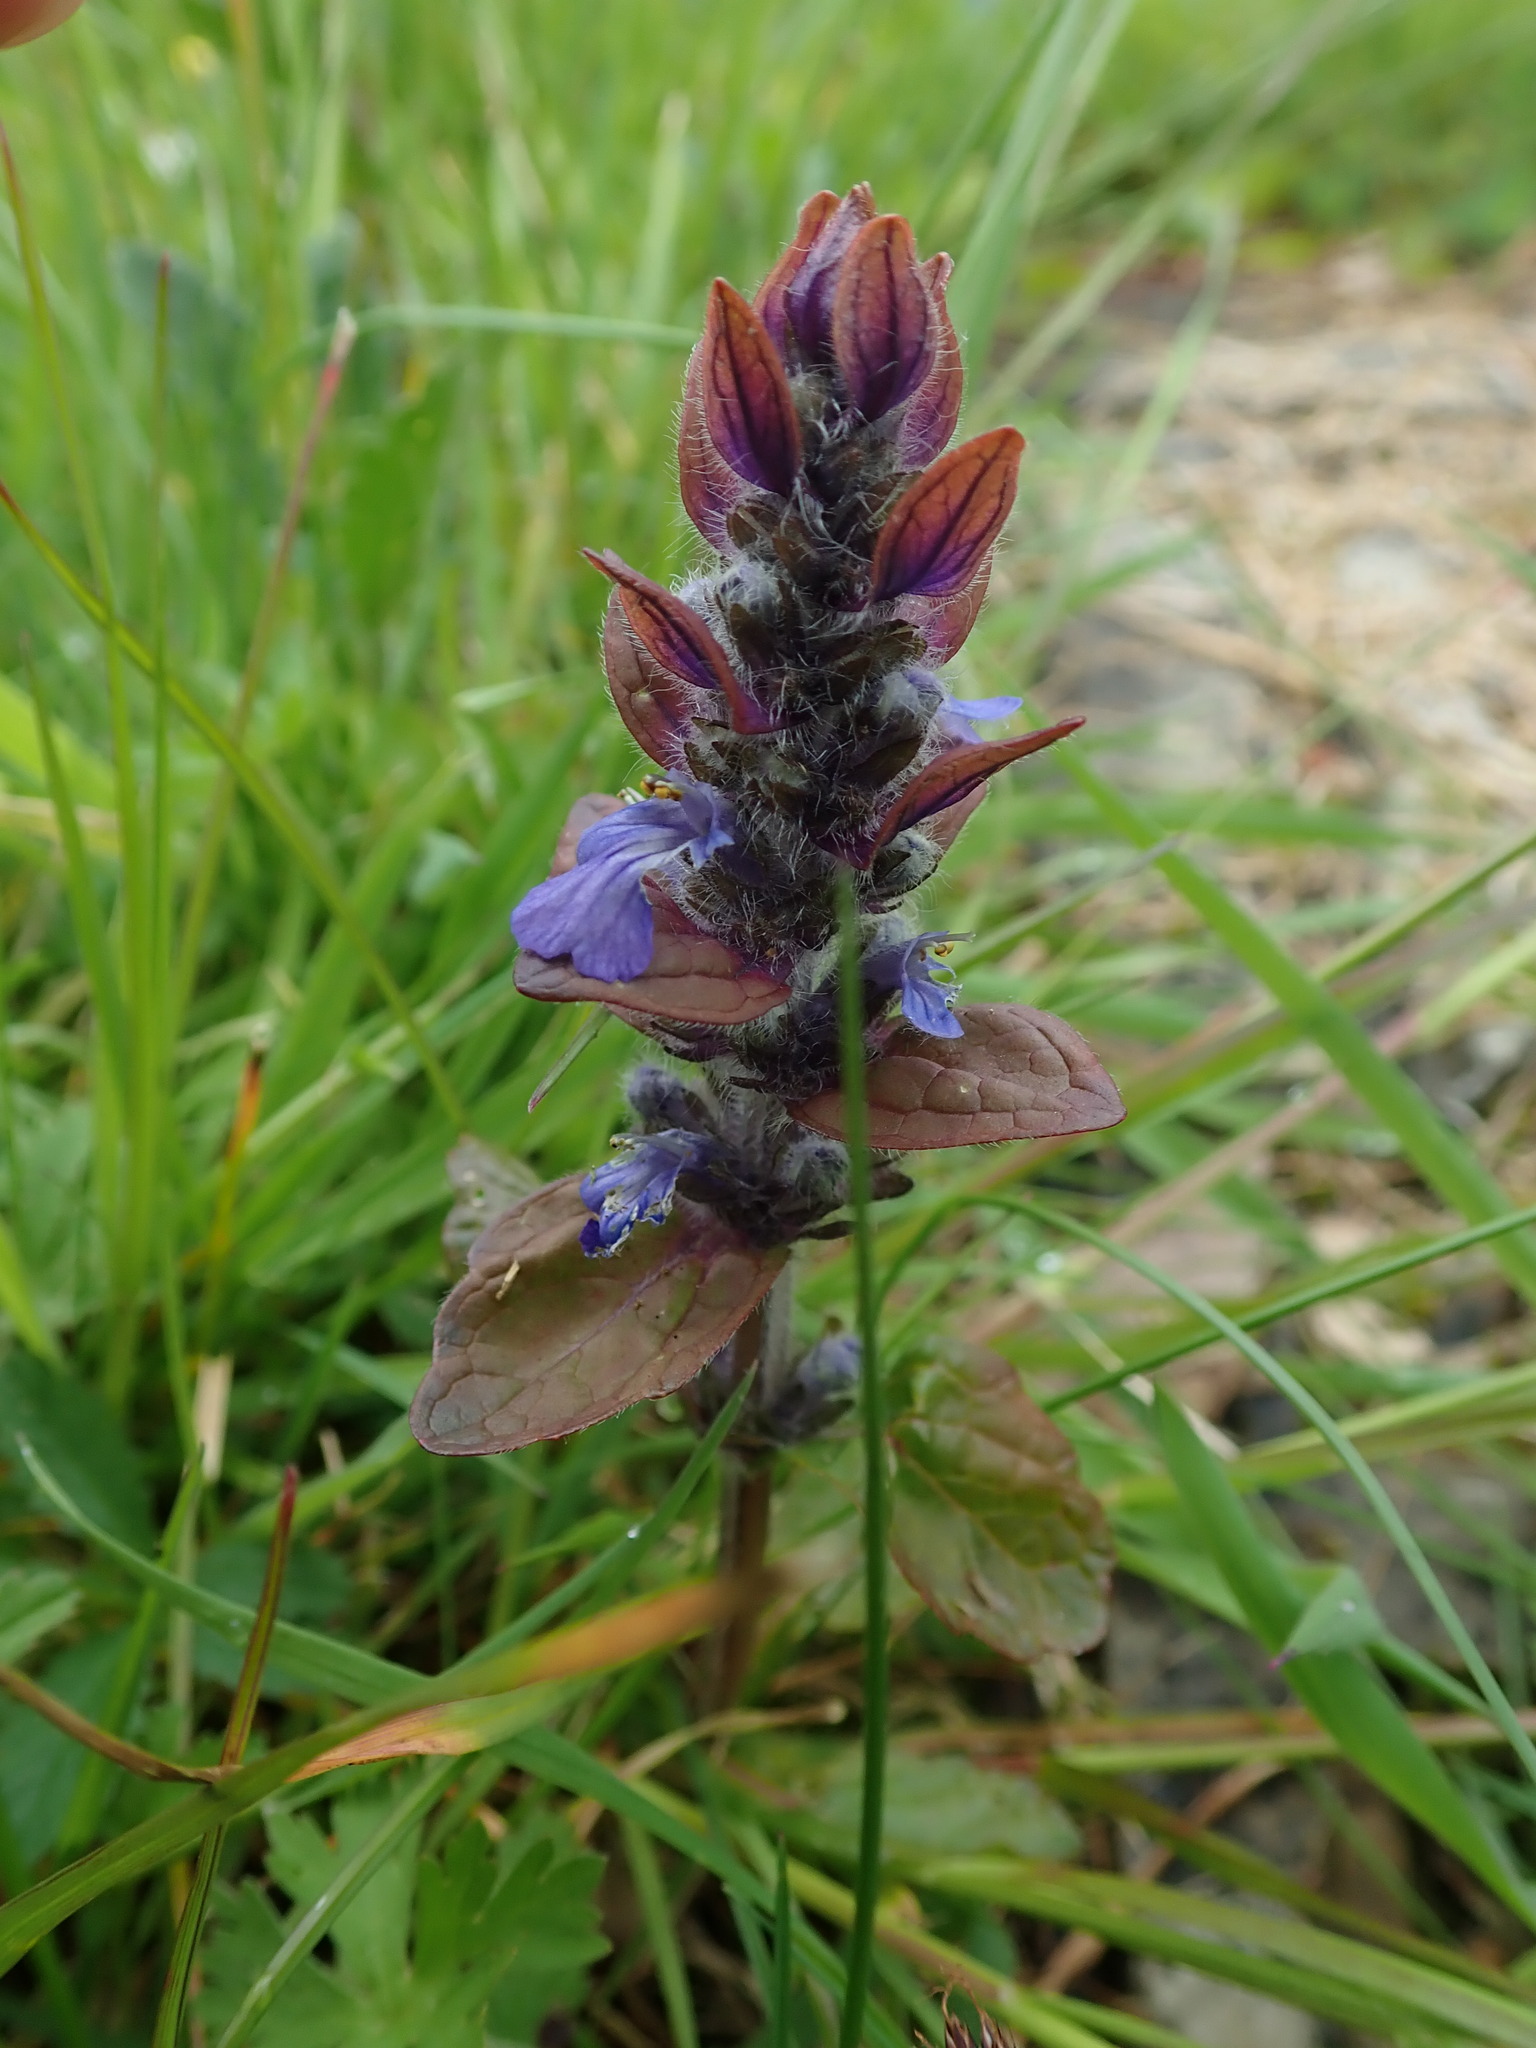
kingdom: Plantae
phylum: Tracheophyta
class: Magnoliopsida
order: Lamiales
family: Lamiaceae
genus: Ajuga
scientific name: Ajuga reptans
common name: Bugle
